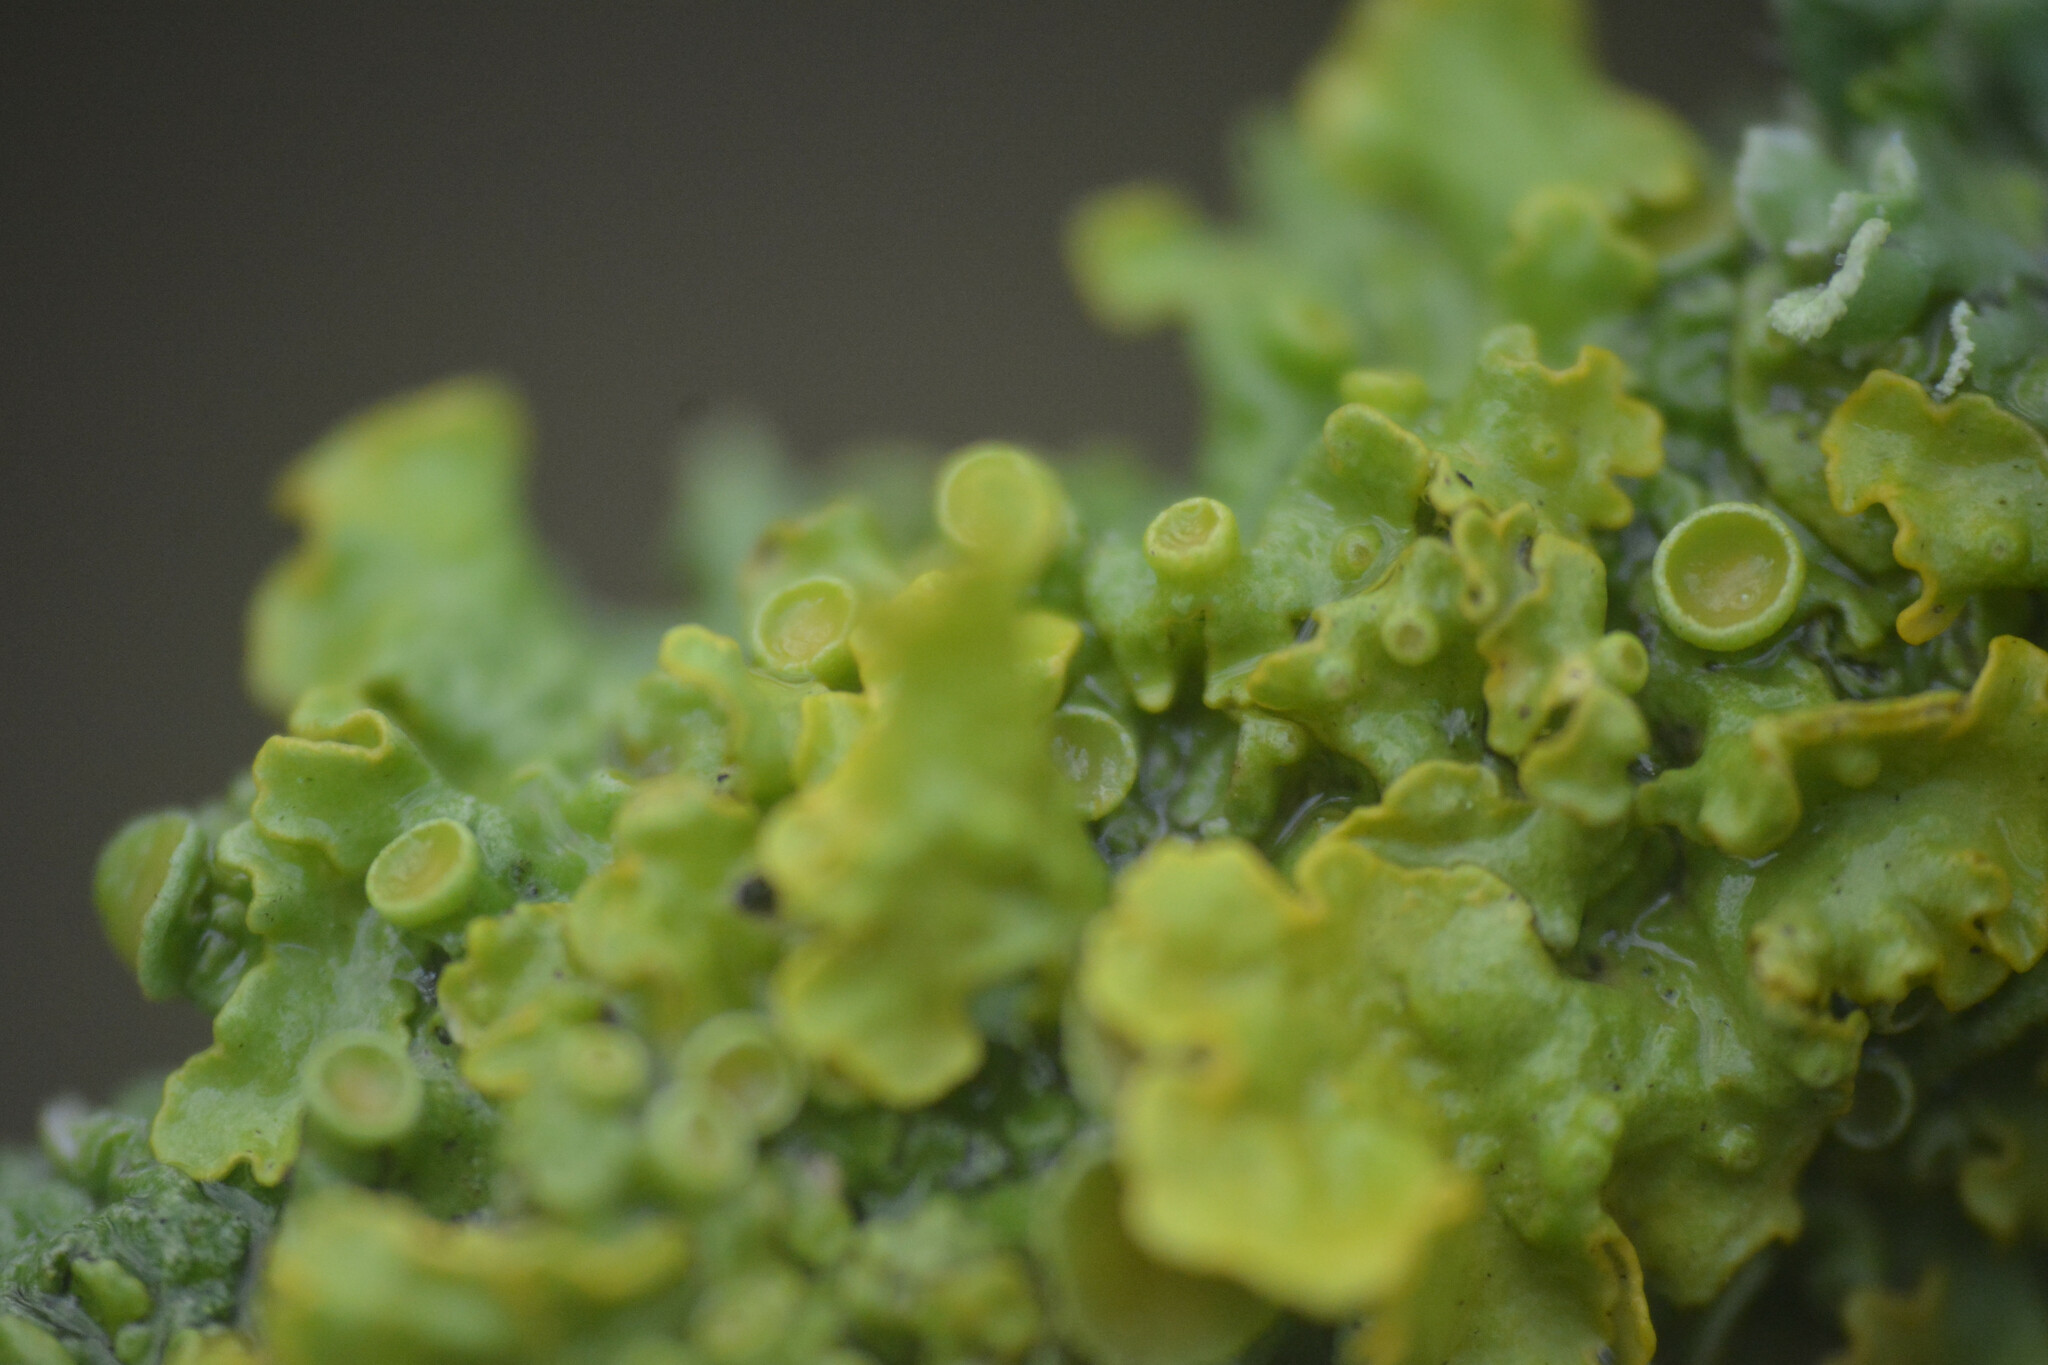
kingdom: Fungi
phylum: Ascomycota
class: Lecanoromycetes
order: Teloschistales
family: Teloschistaceae
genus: Xanthoria
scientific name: Xanthoria parietina
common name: Common orange lichen
